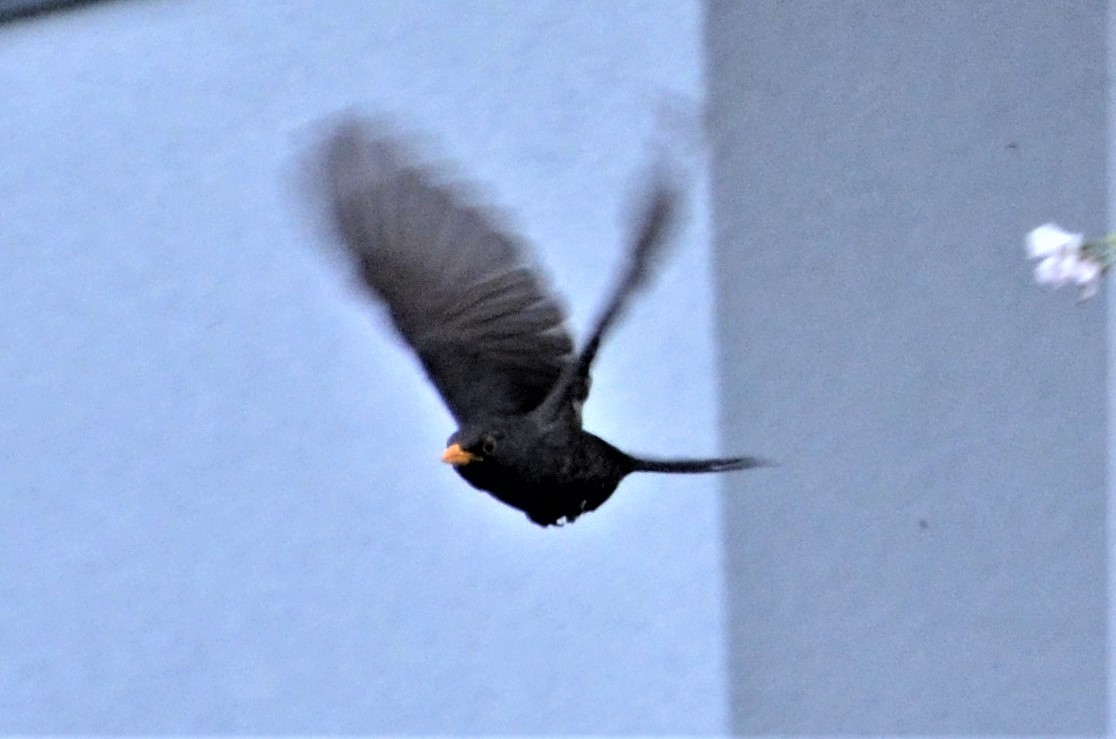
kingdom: Animalia
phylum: Chordata
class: Aves
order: Passeriformes
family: Turdidae
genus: Turdus
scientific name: Turdus merula
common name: Common blackbird
